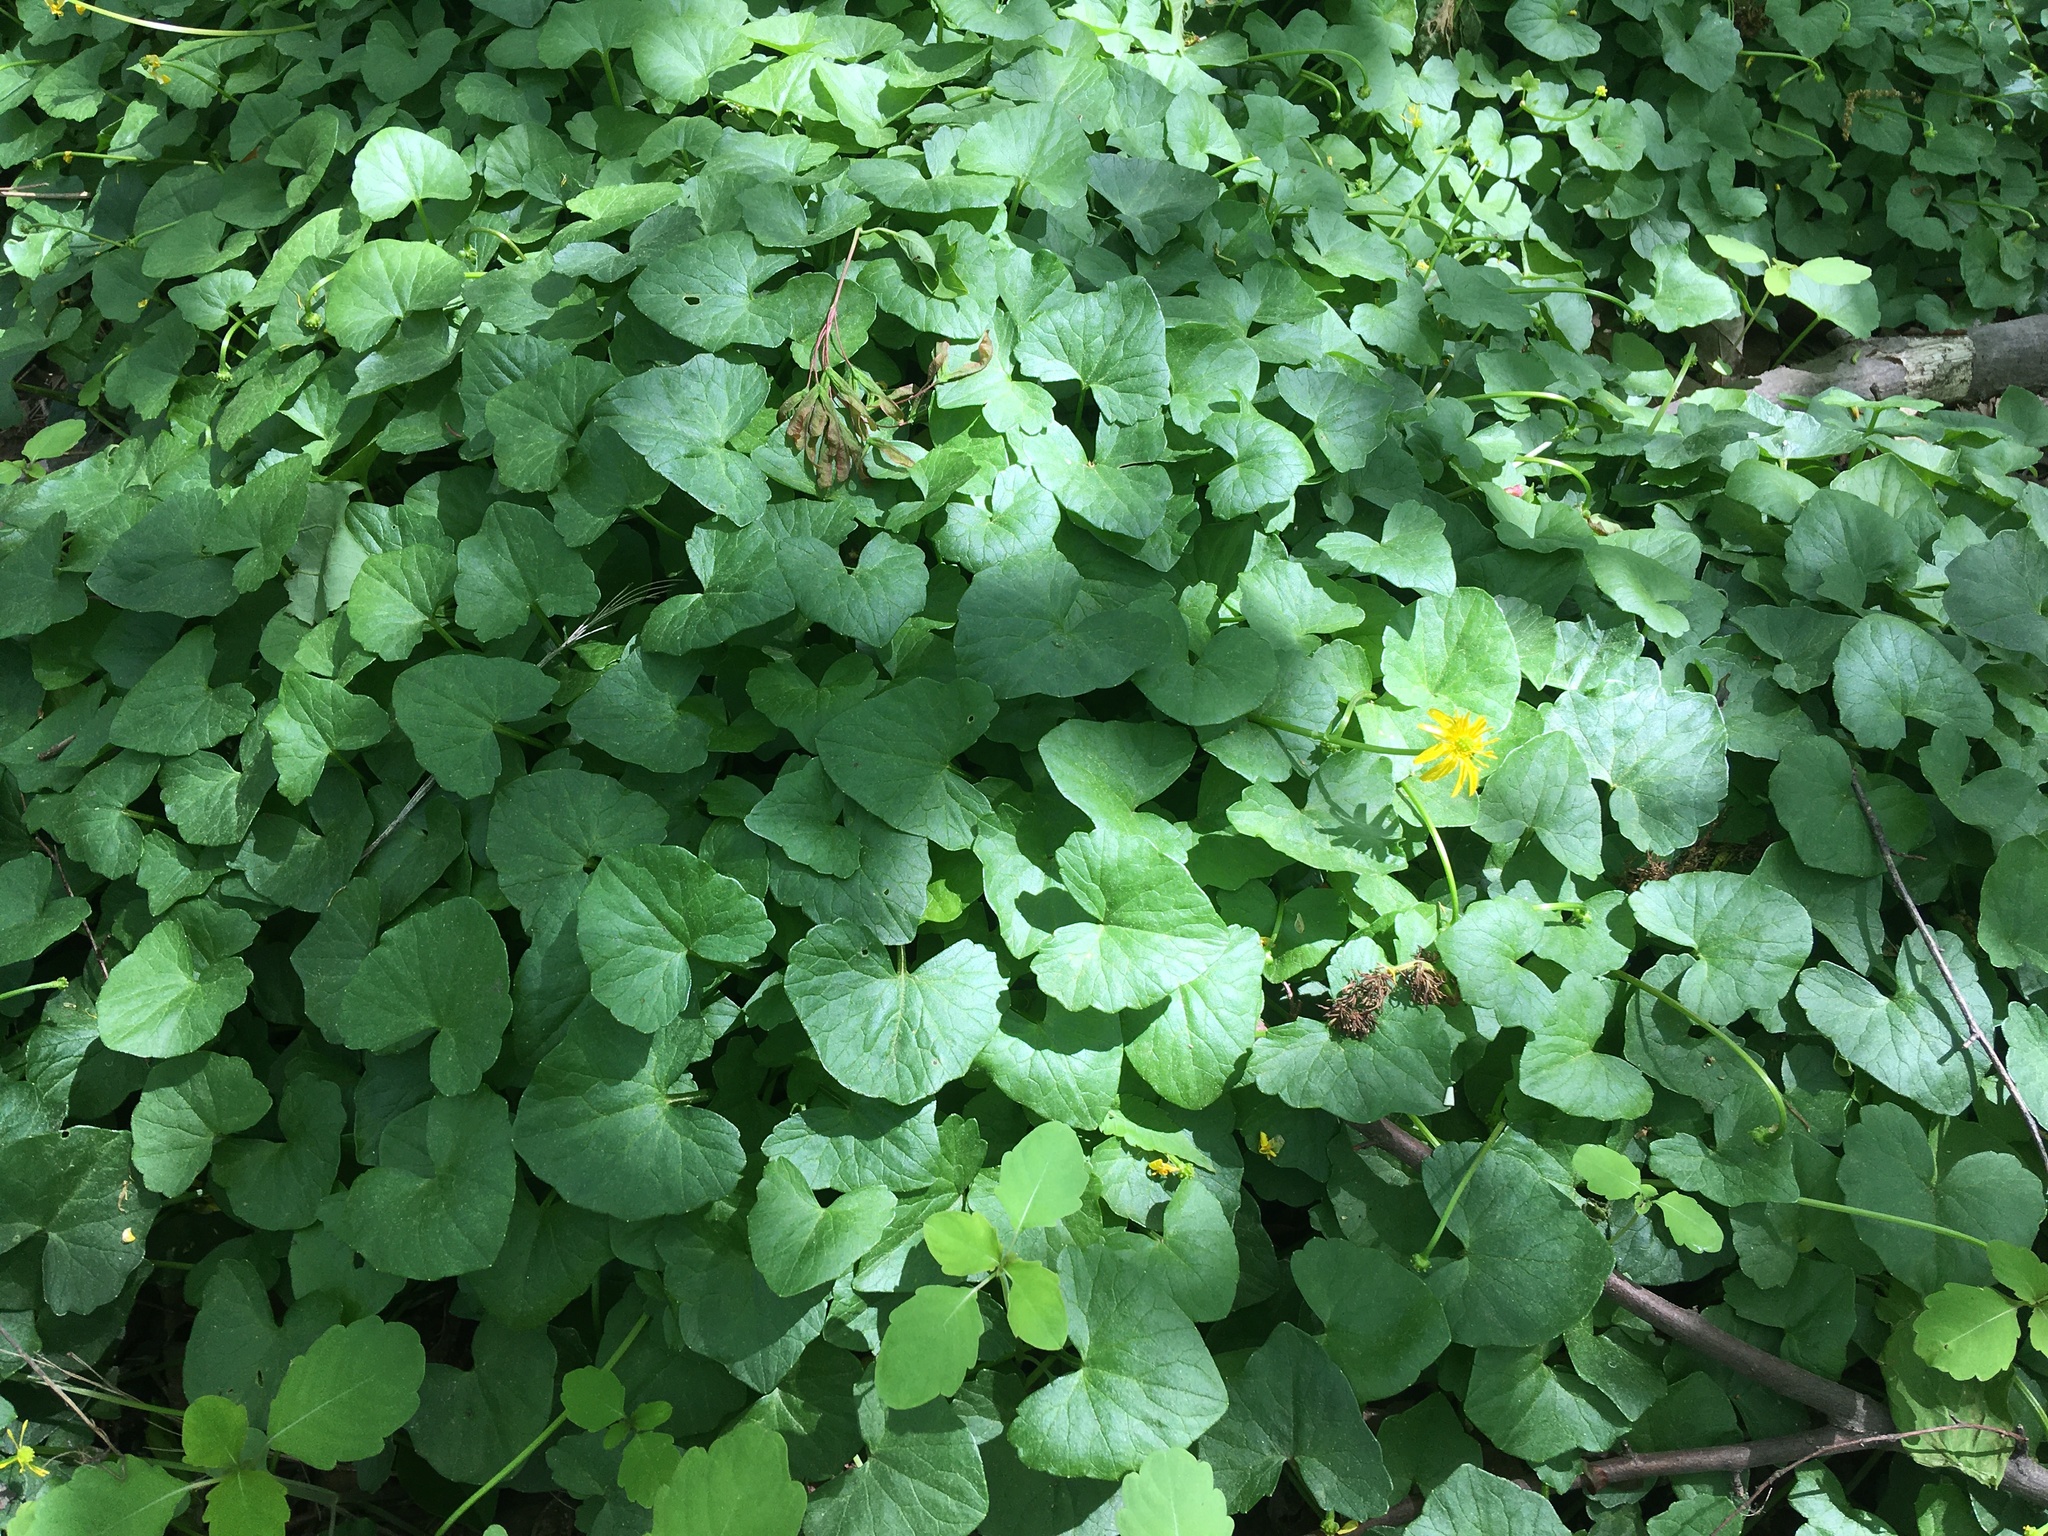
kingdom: Plantae
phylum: Tracheophyta
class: Magnoliopsida
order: Ranunculales
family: Ranunculaceae
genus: Ficaria
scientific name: Ficaria verna
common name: Lesser celandine
